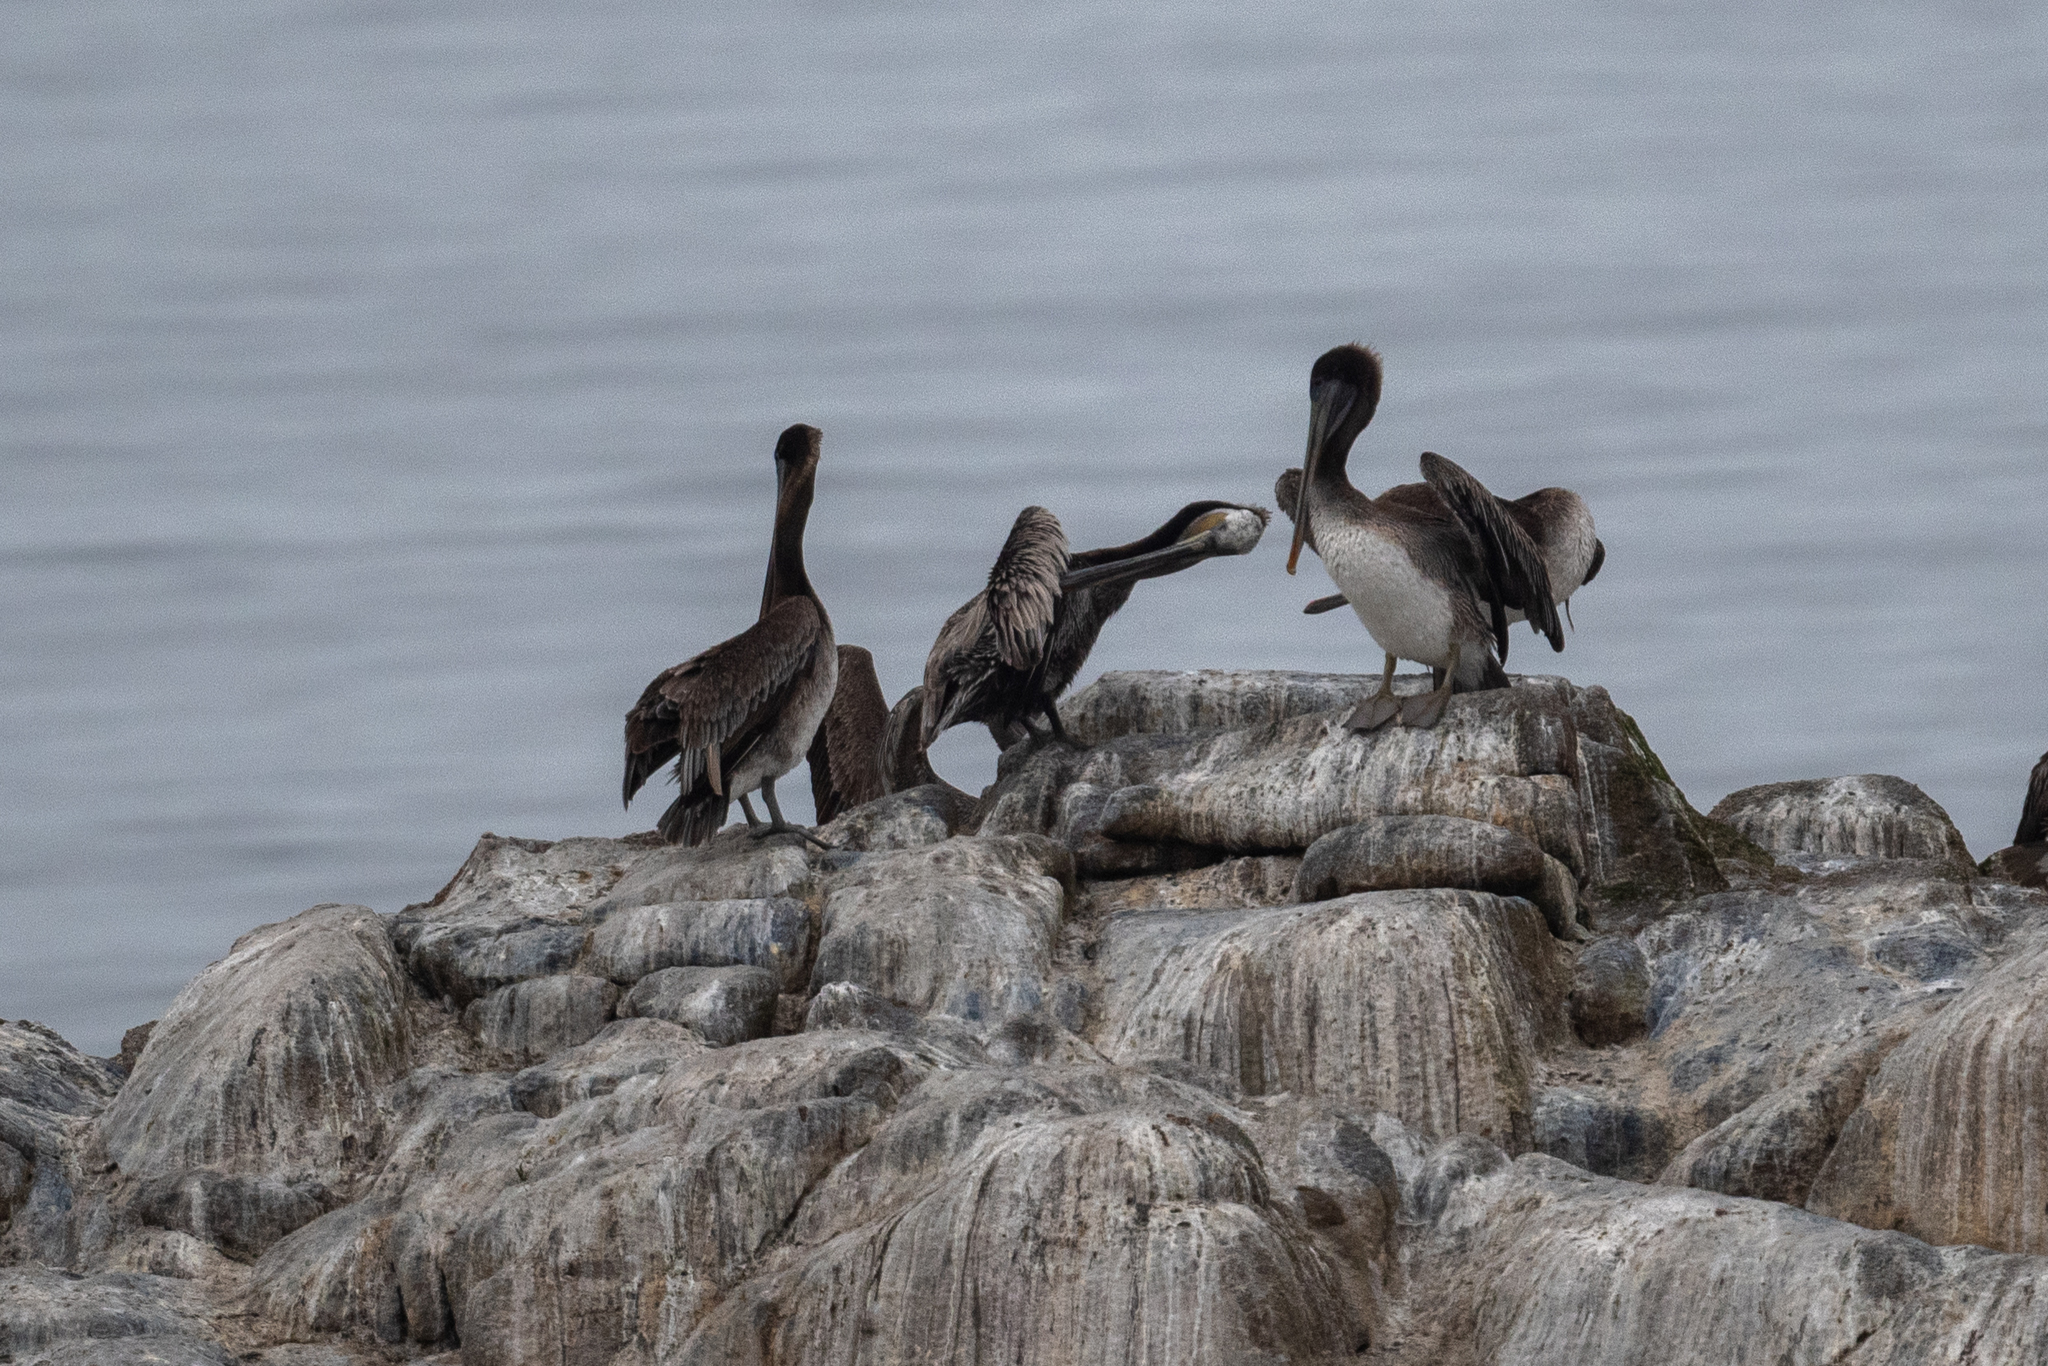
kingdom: Animalia
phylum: Chordata
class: Aves
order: Pelecaniformes
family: Pelecanidae
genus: Pelecanus
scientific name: Pelecanus occidentalis
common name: Brown pelican
